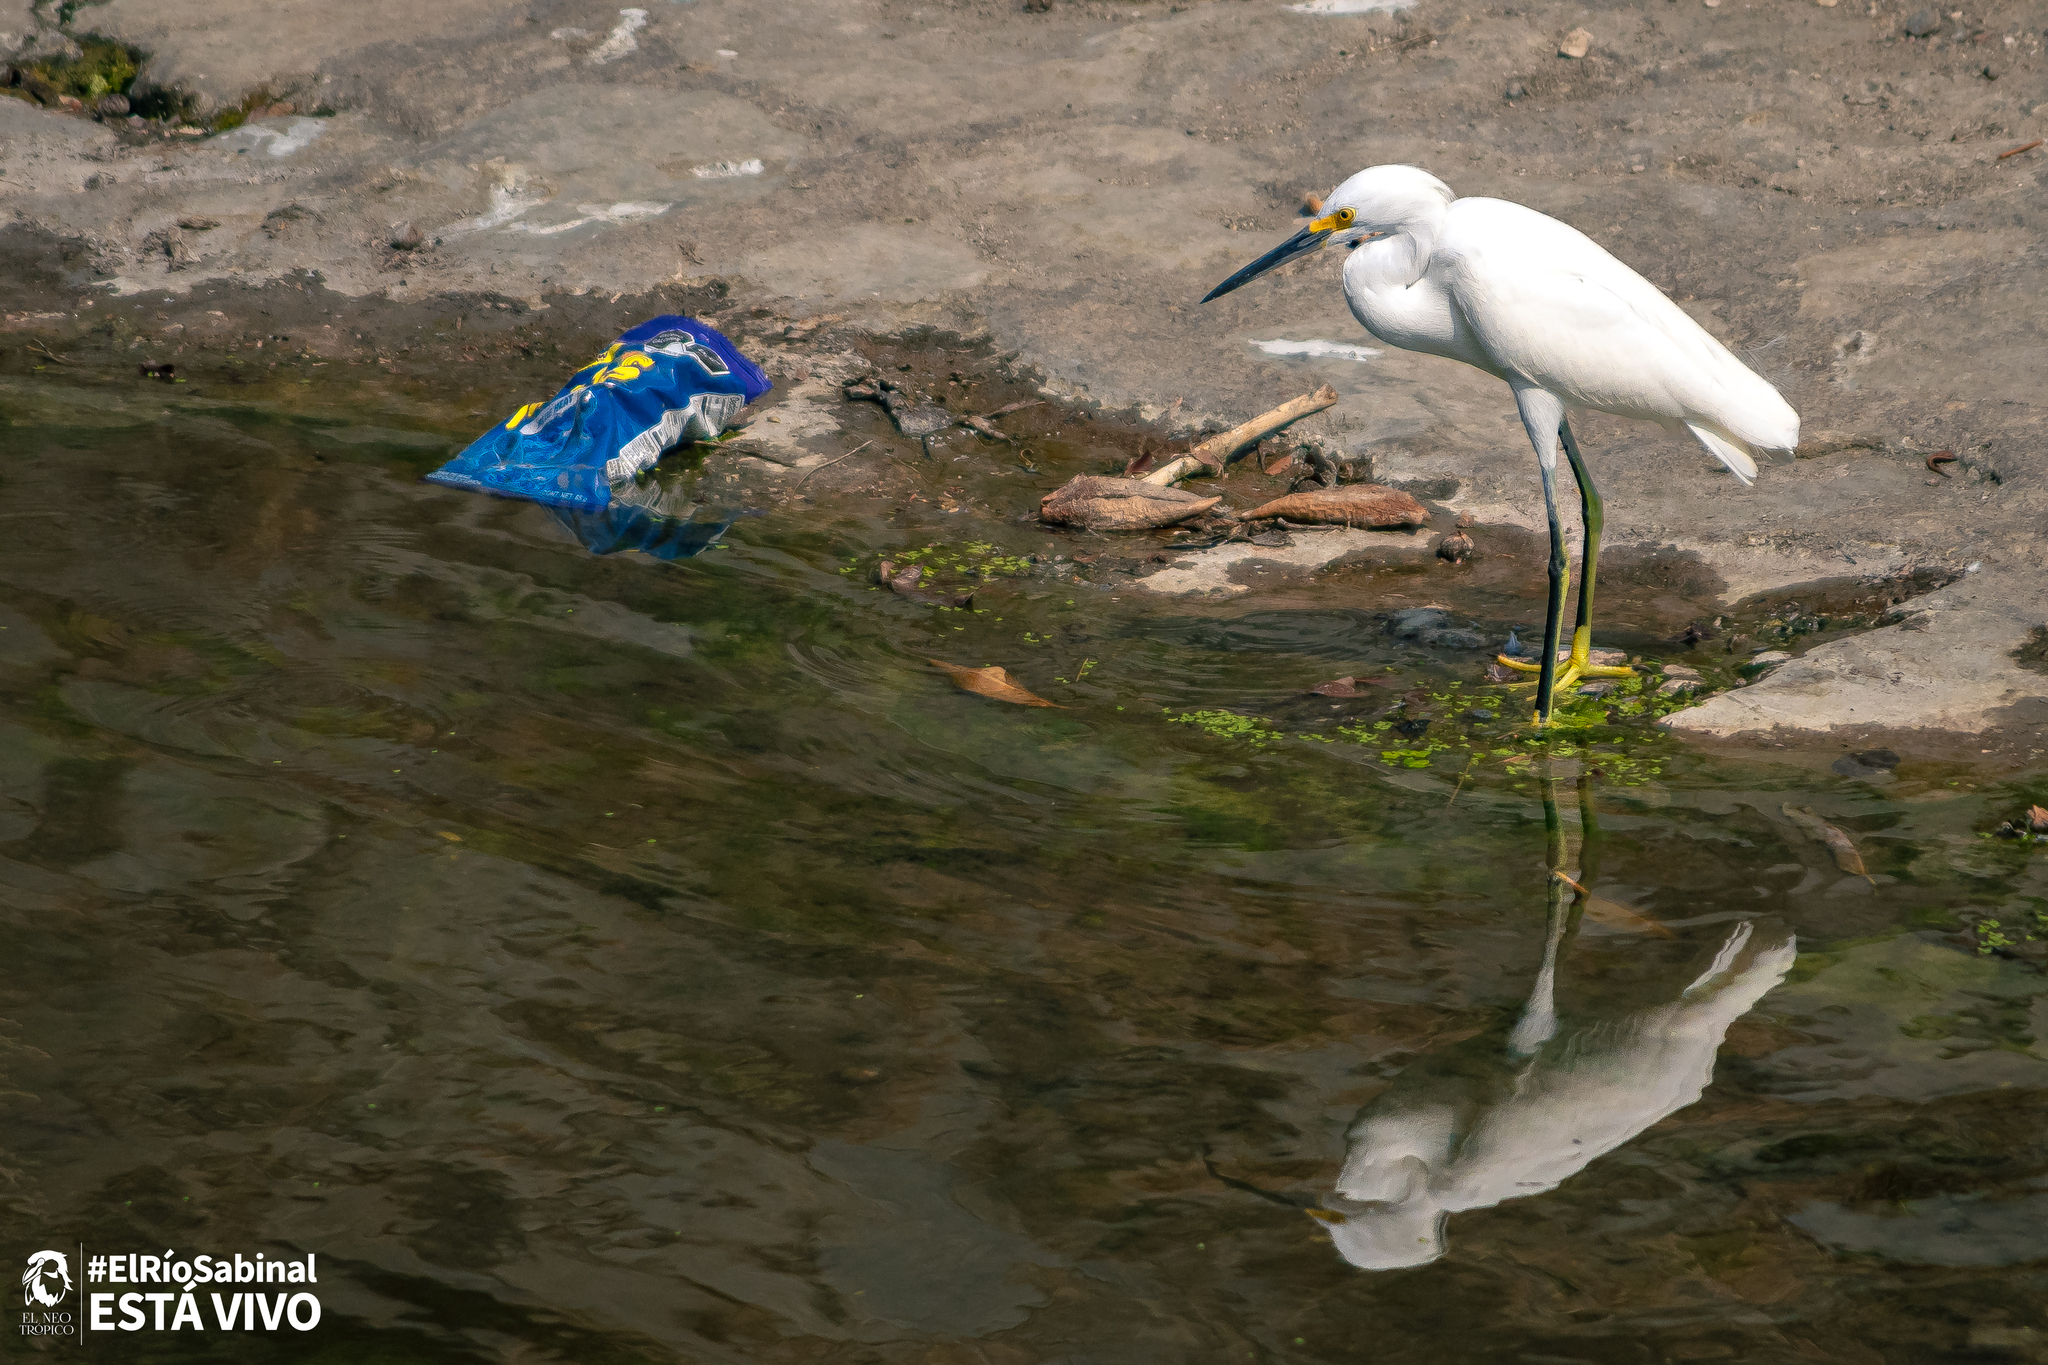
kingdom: Animalia
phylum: Chordata
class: Aves
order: Pelecaniformes
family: Ardeidae
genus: Egretta
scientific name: Egretta thula
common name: Snowy egret
